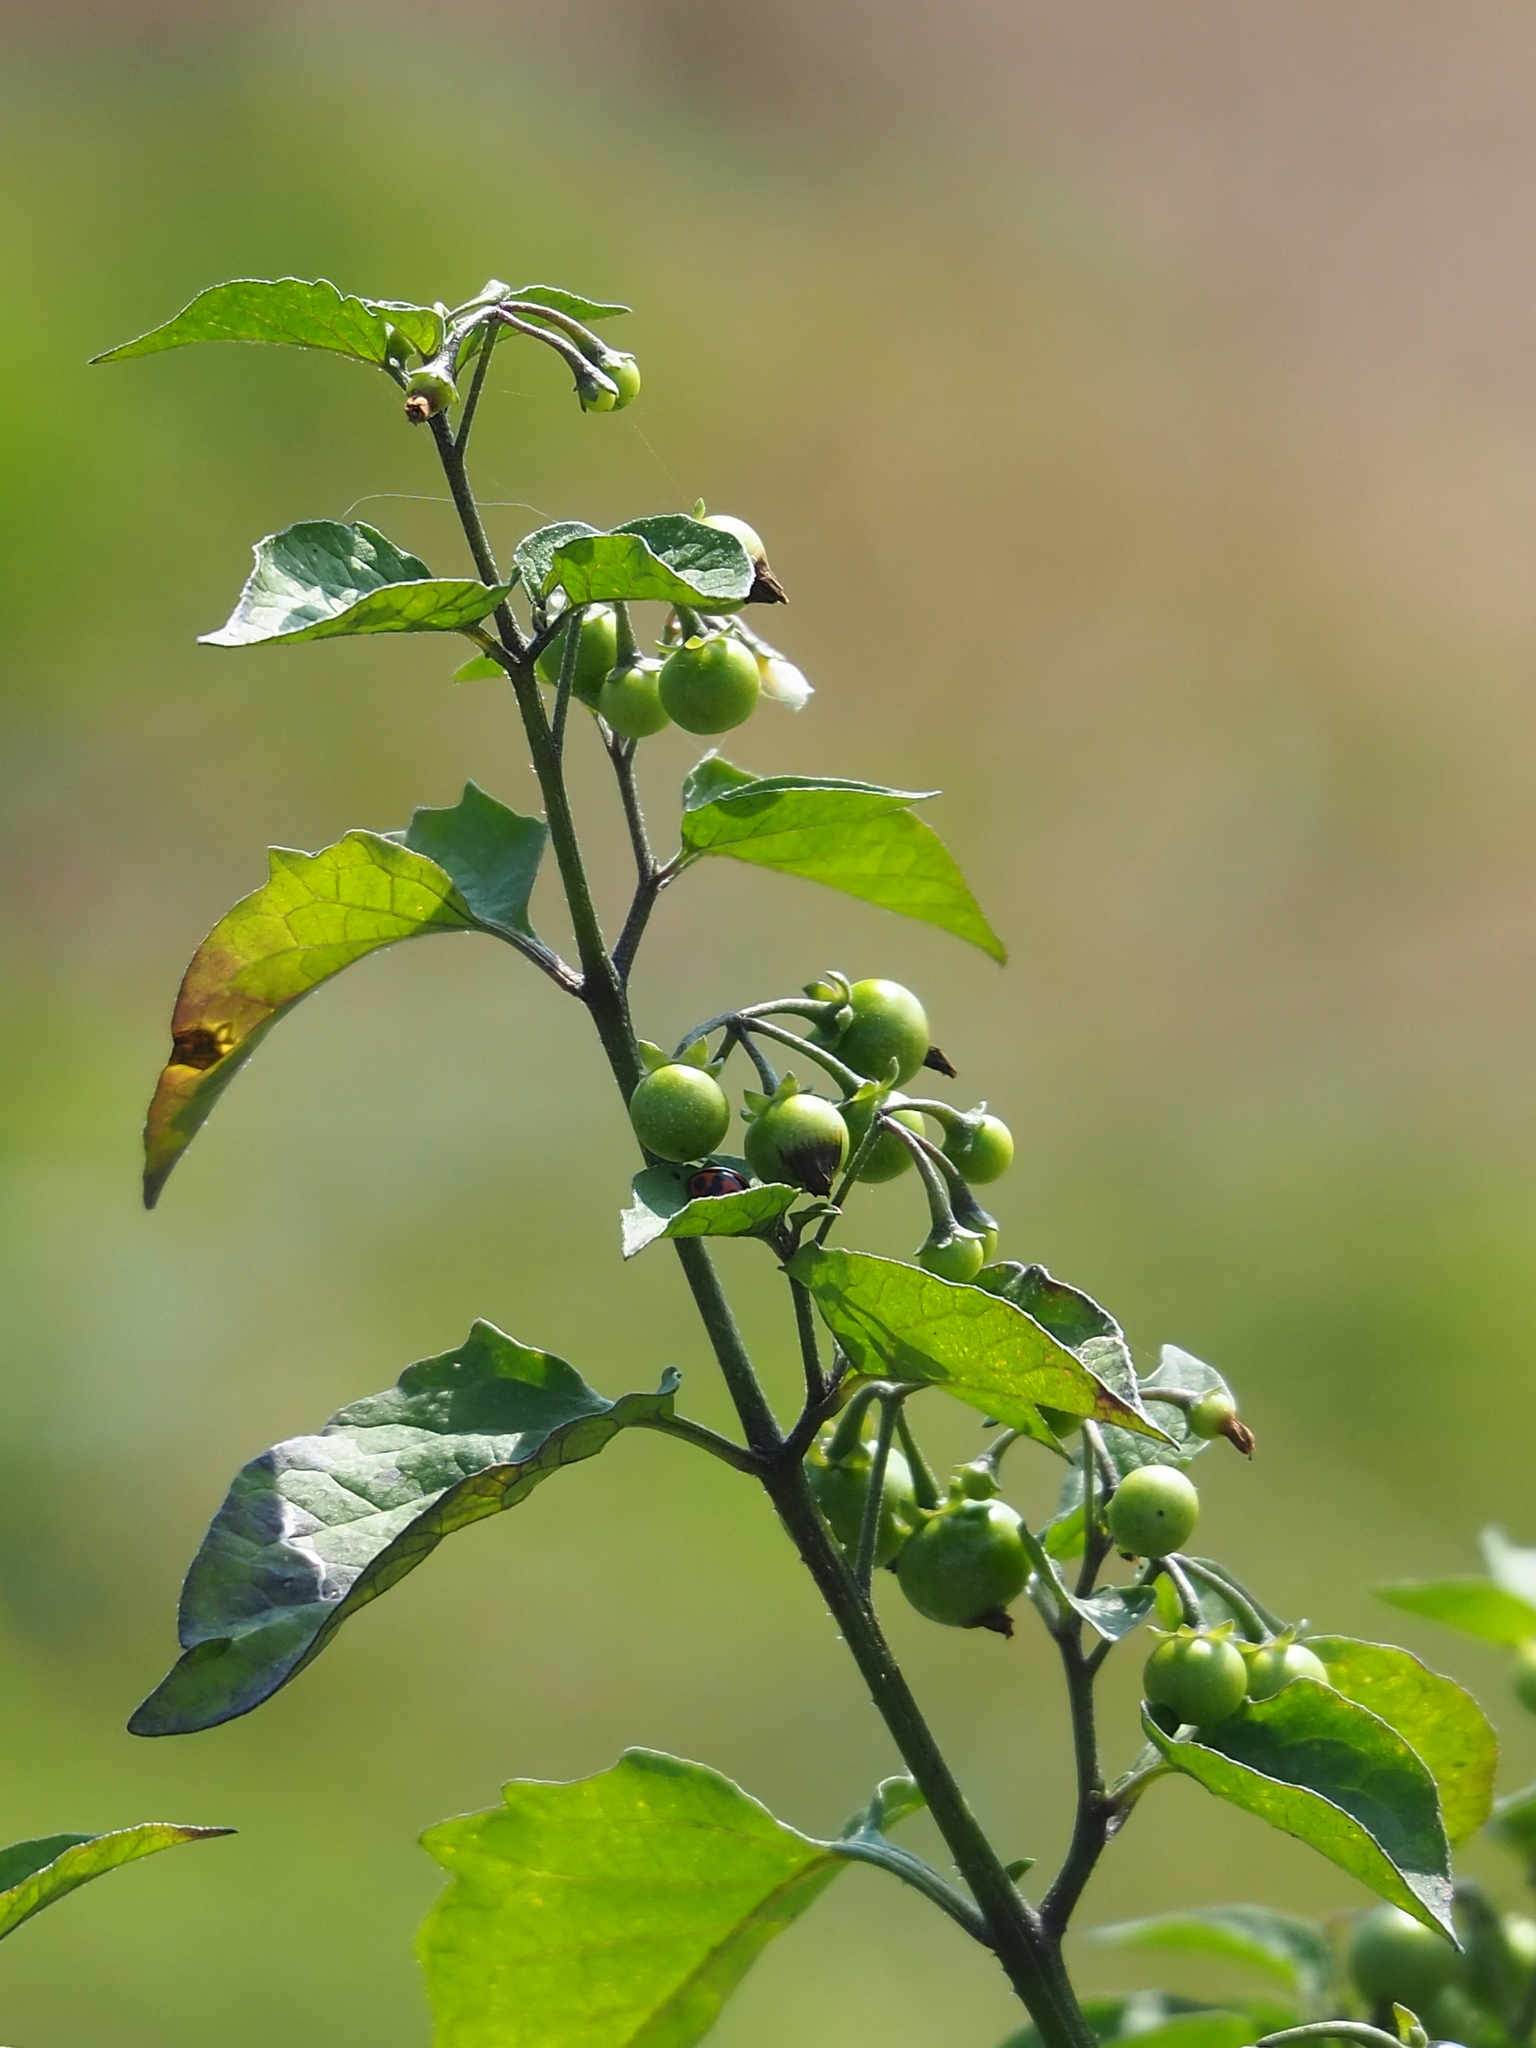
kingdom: Plantae
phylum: Tracheophyta
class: Magnoliopsida
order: Solanales
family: Solanaceae
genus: Solanum
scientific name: Solanum americanum
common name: American black nightshade
